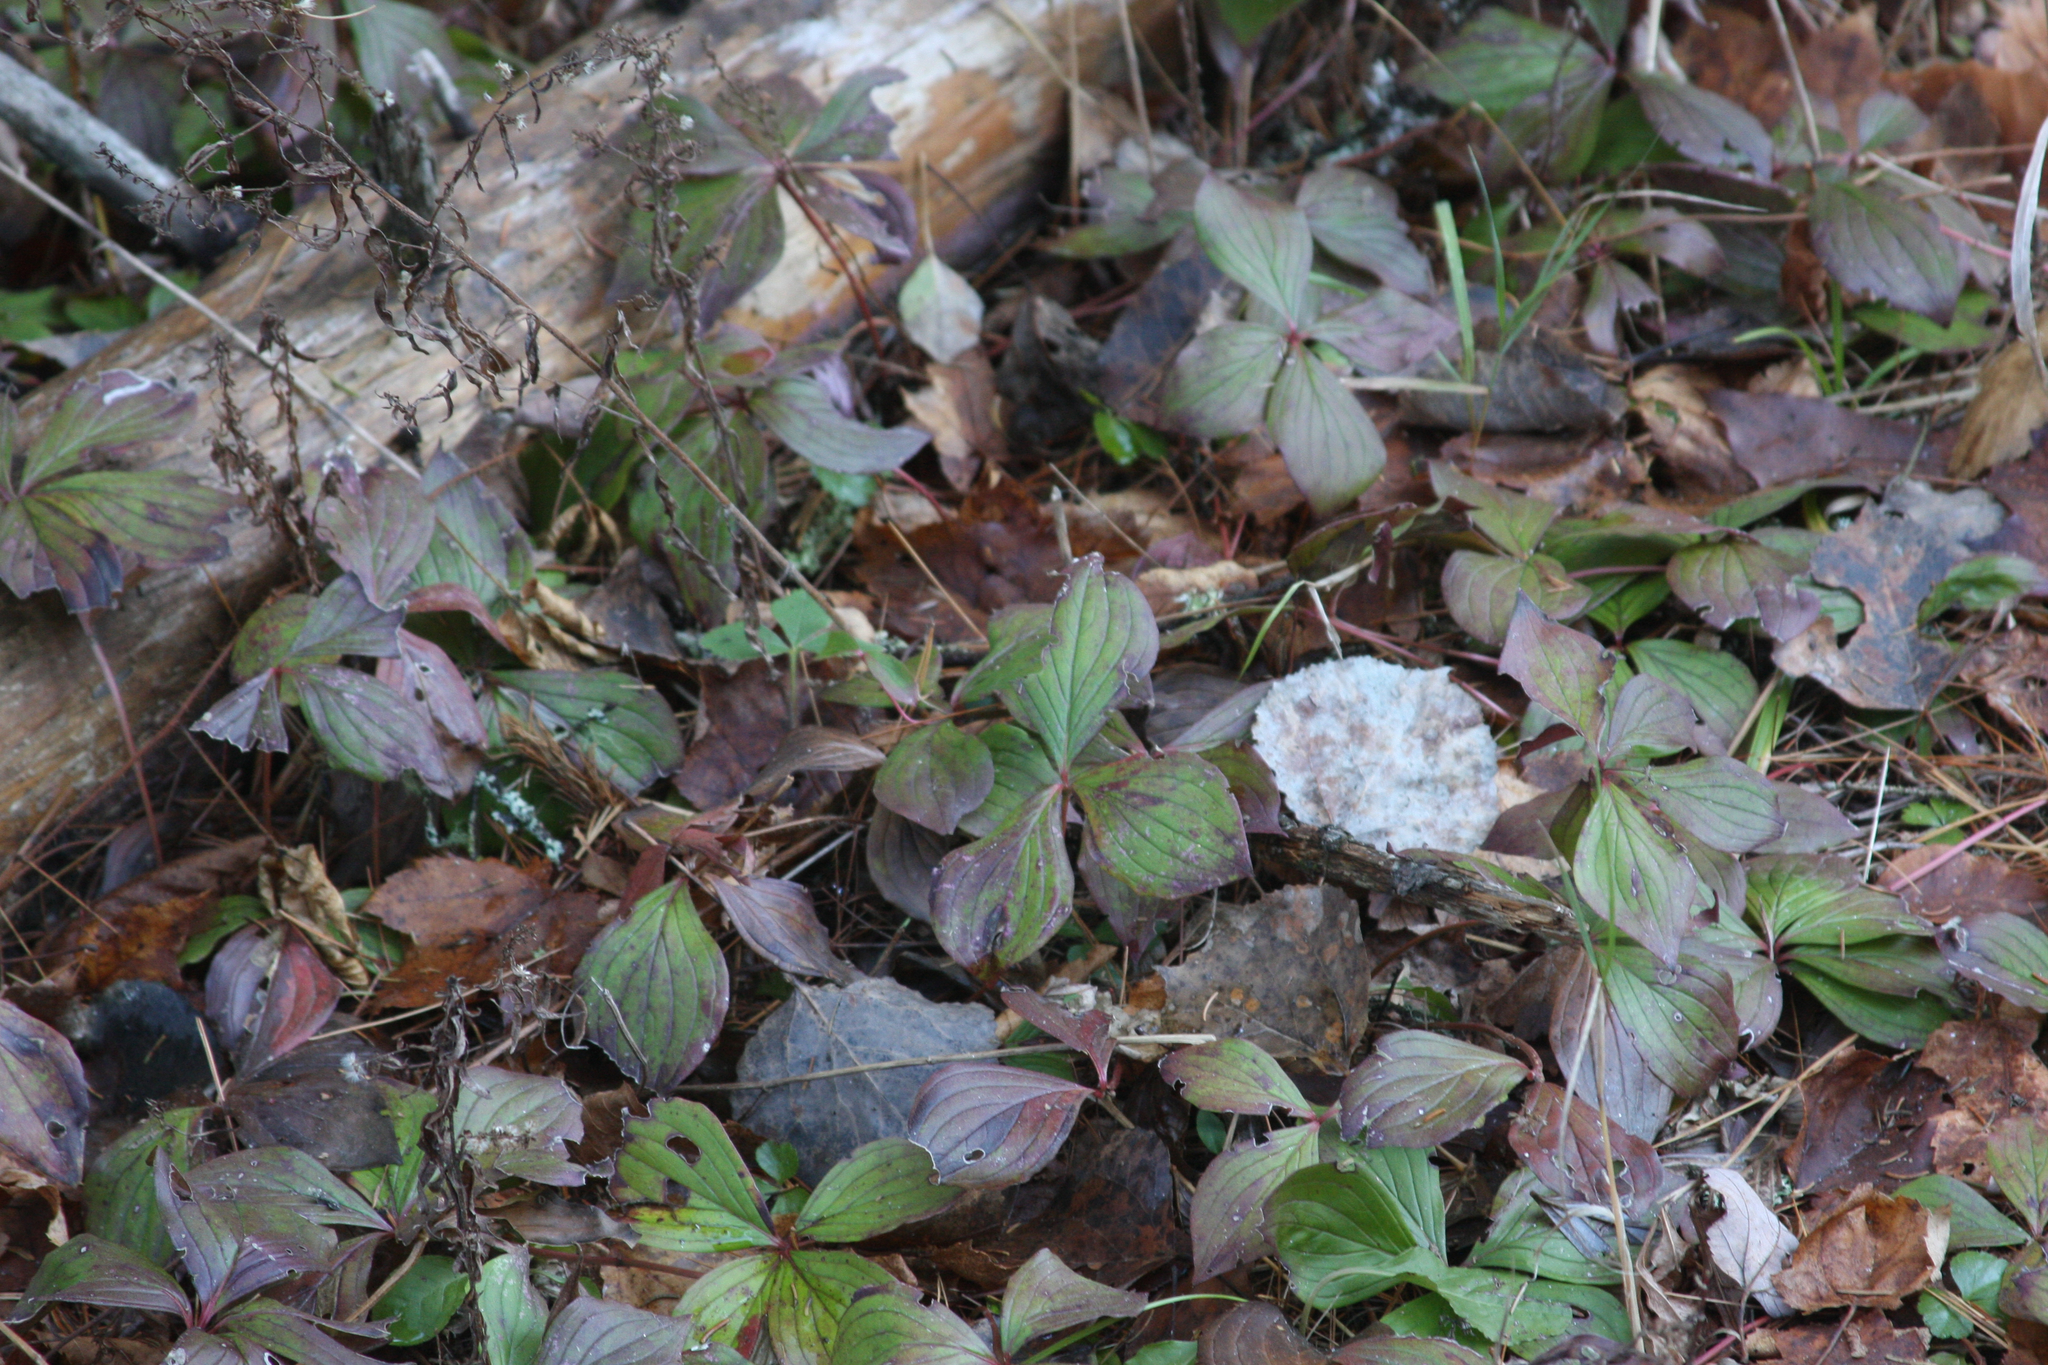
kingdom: Plantae
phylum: Tracheophyta
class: Magnoliopsida
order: Cornales
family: Cornaceae
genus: Cornus
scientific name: Cornus canadensis
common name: Creeping dogwood
